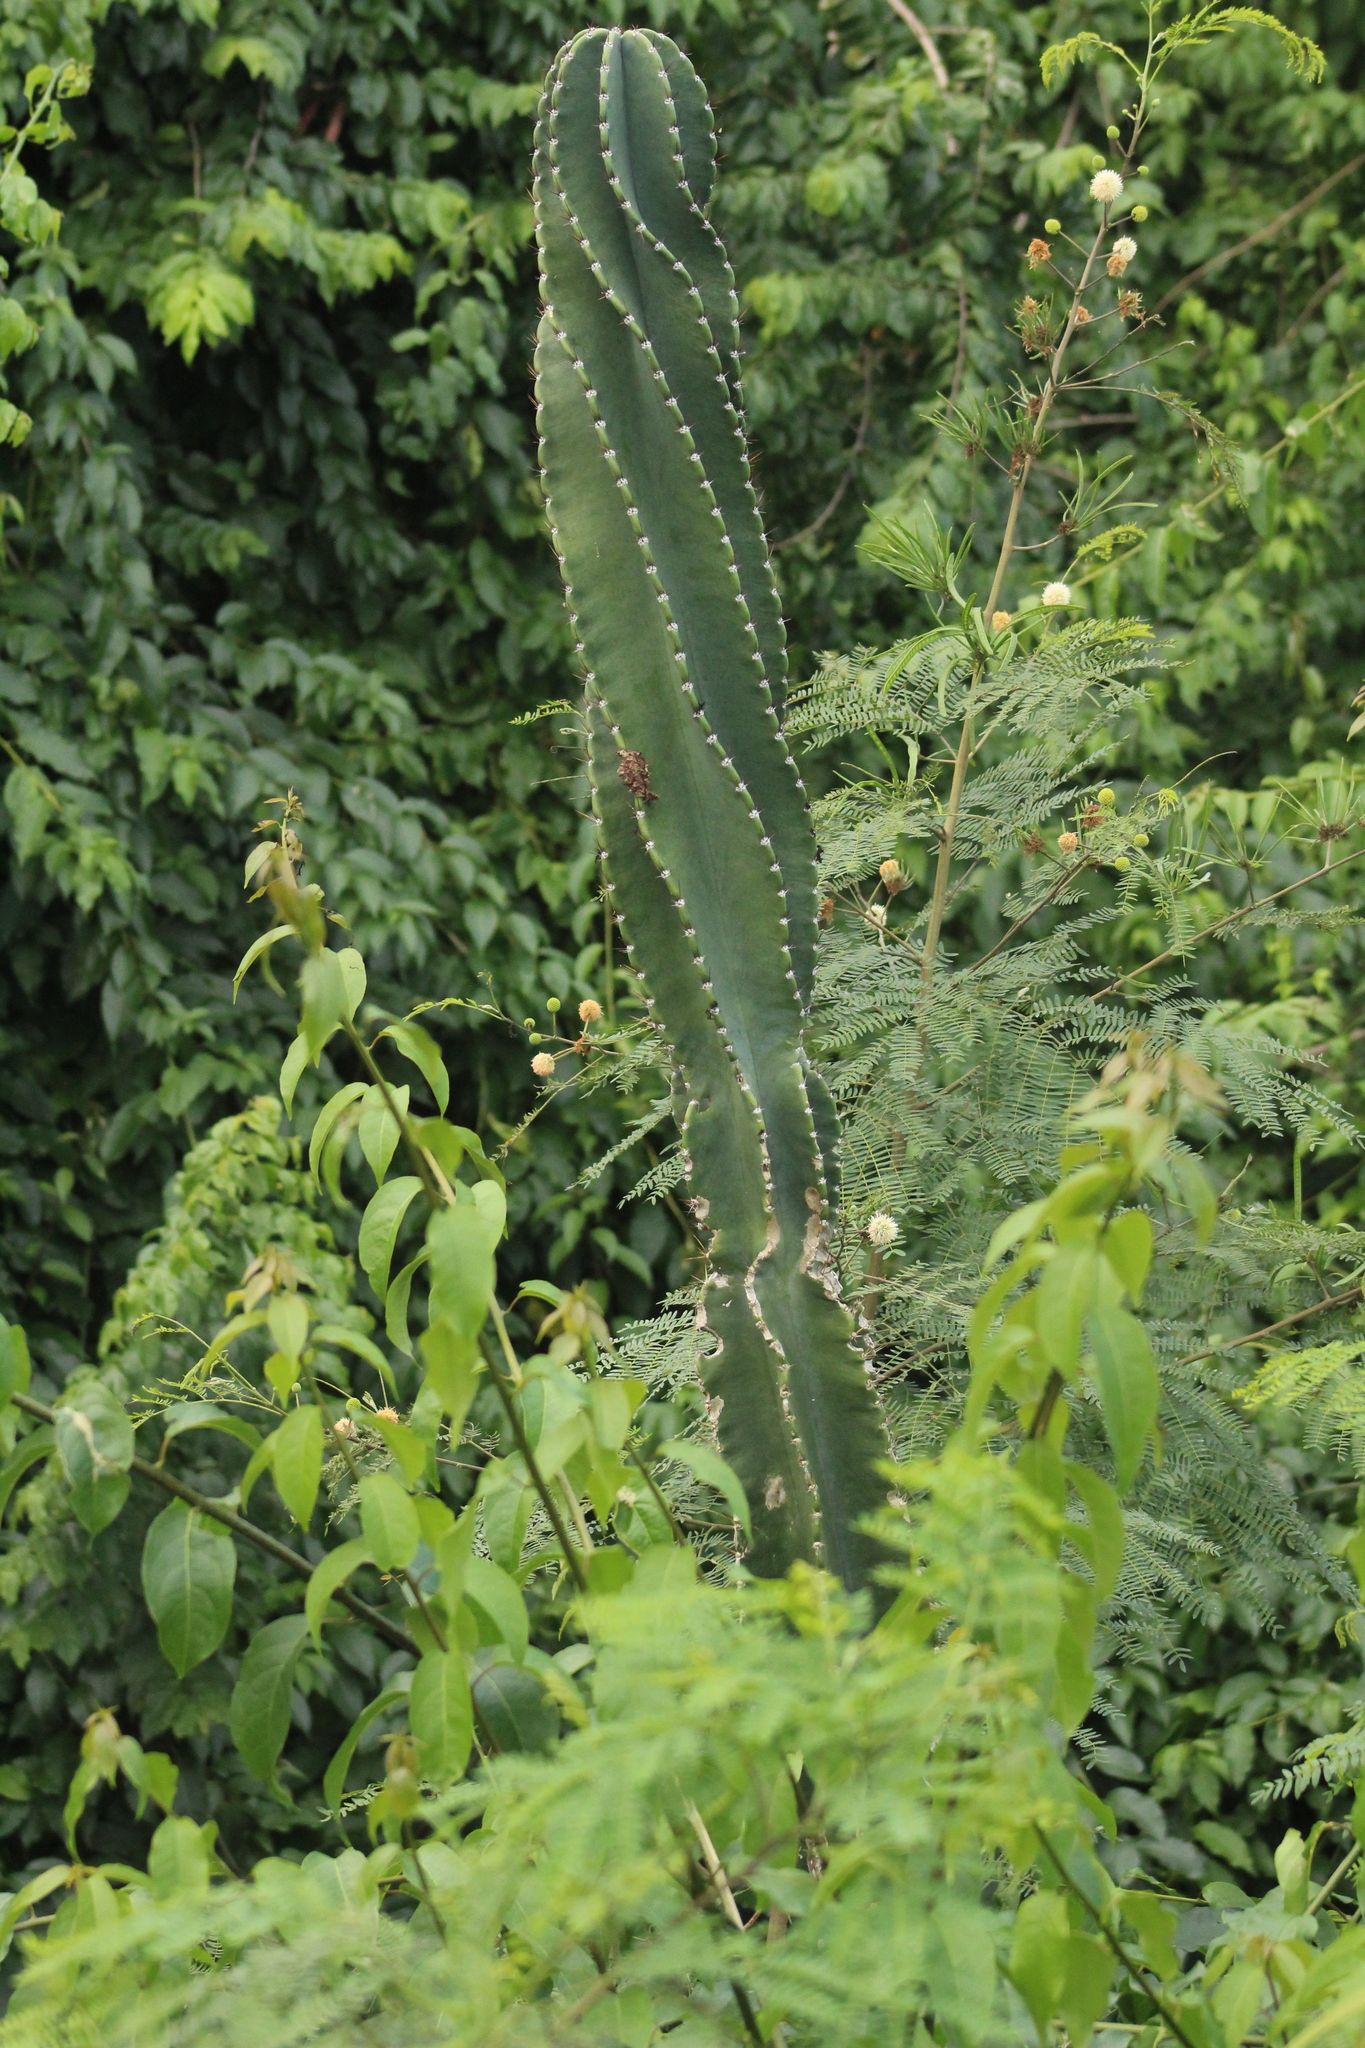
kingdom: Plantae
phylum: Tracheophyta
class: Magnoliopsida
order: Caryophyllales
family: Cactaceae
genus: Cereus
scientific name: Cereus hexagonus
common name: Lady of the night cactus
